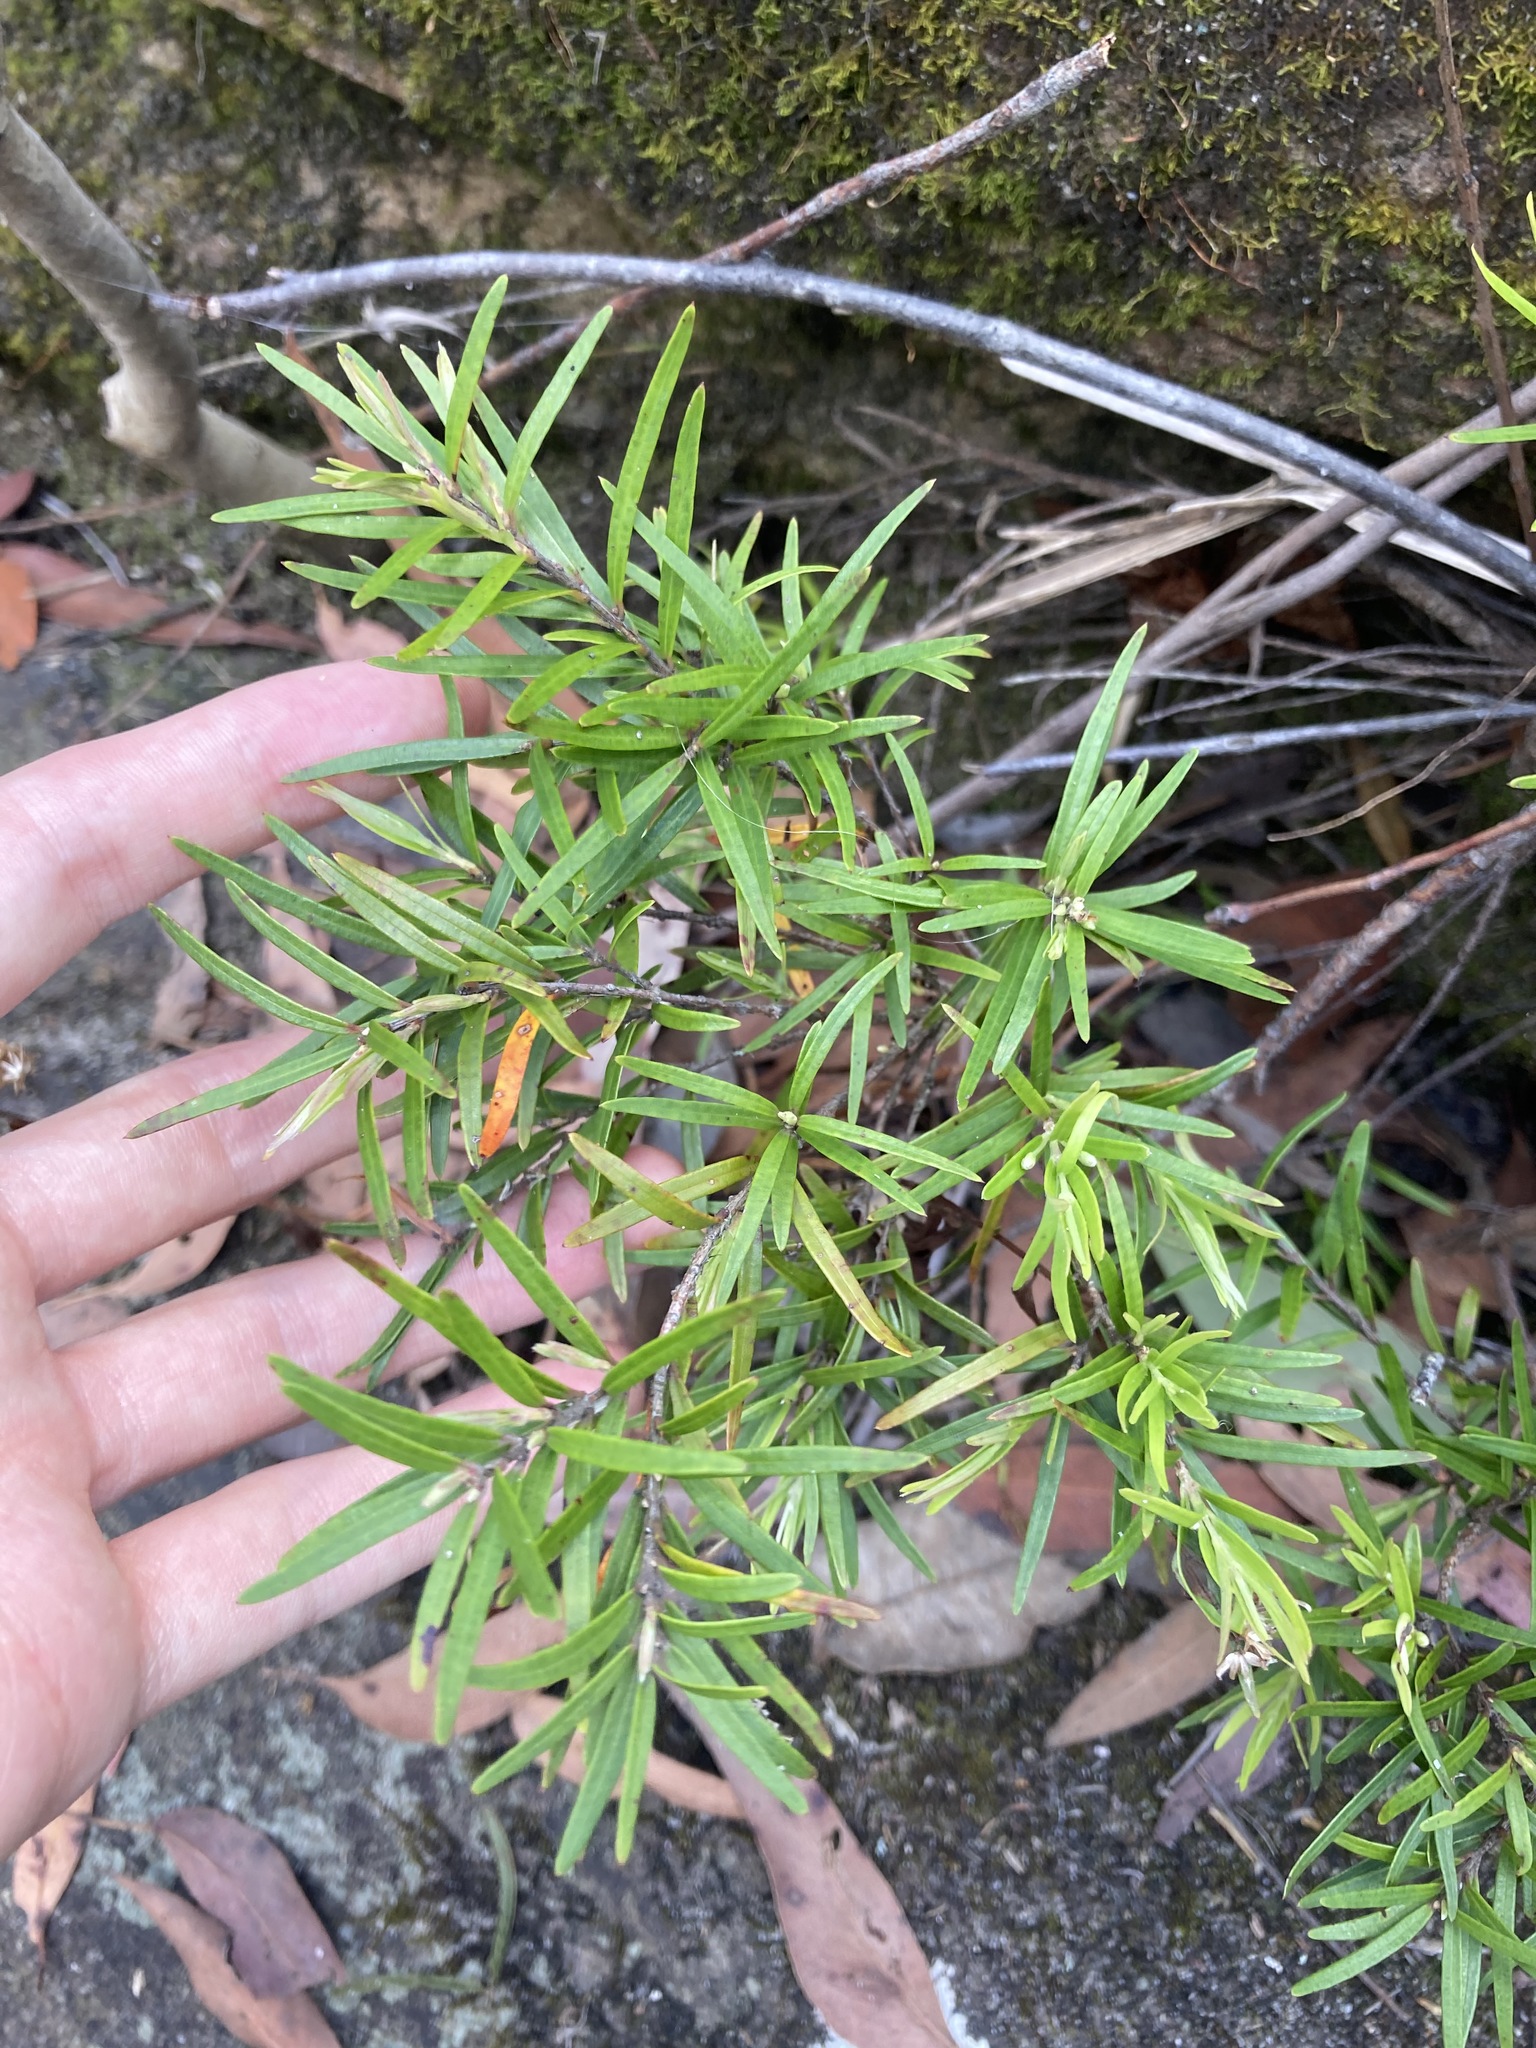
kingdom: Plantae
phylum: Tracheophyta
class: Magnoliopsida
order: Myrtales
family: Myrtaceae
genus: Austromyrtus
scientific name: Austromyrtus tenuifolia
